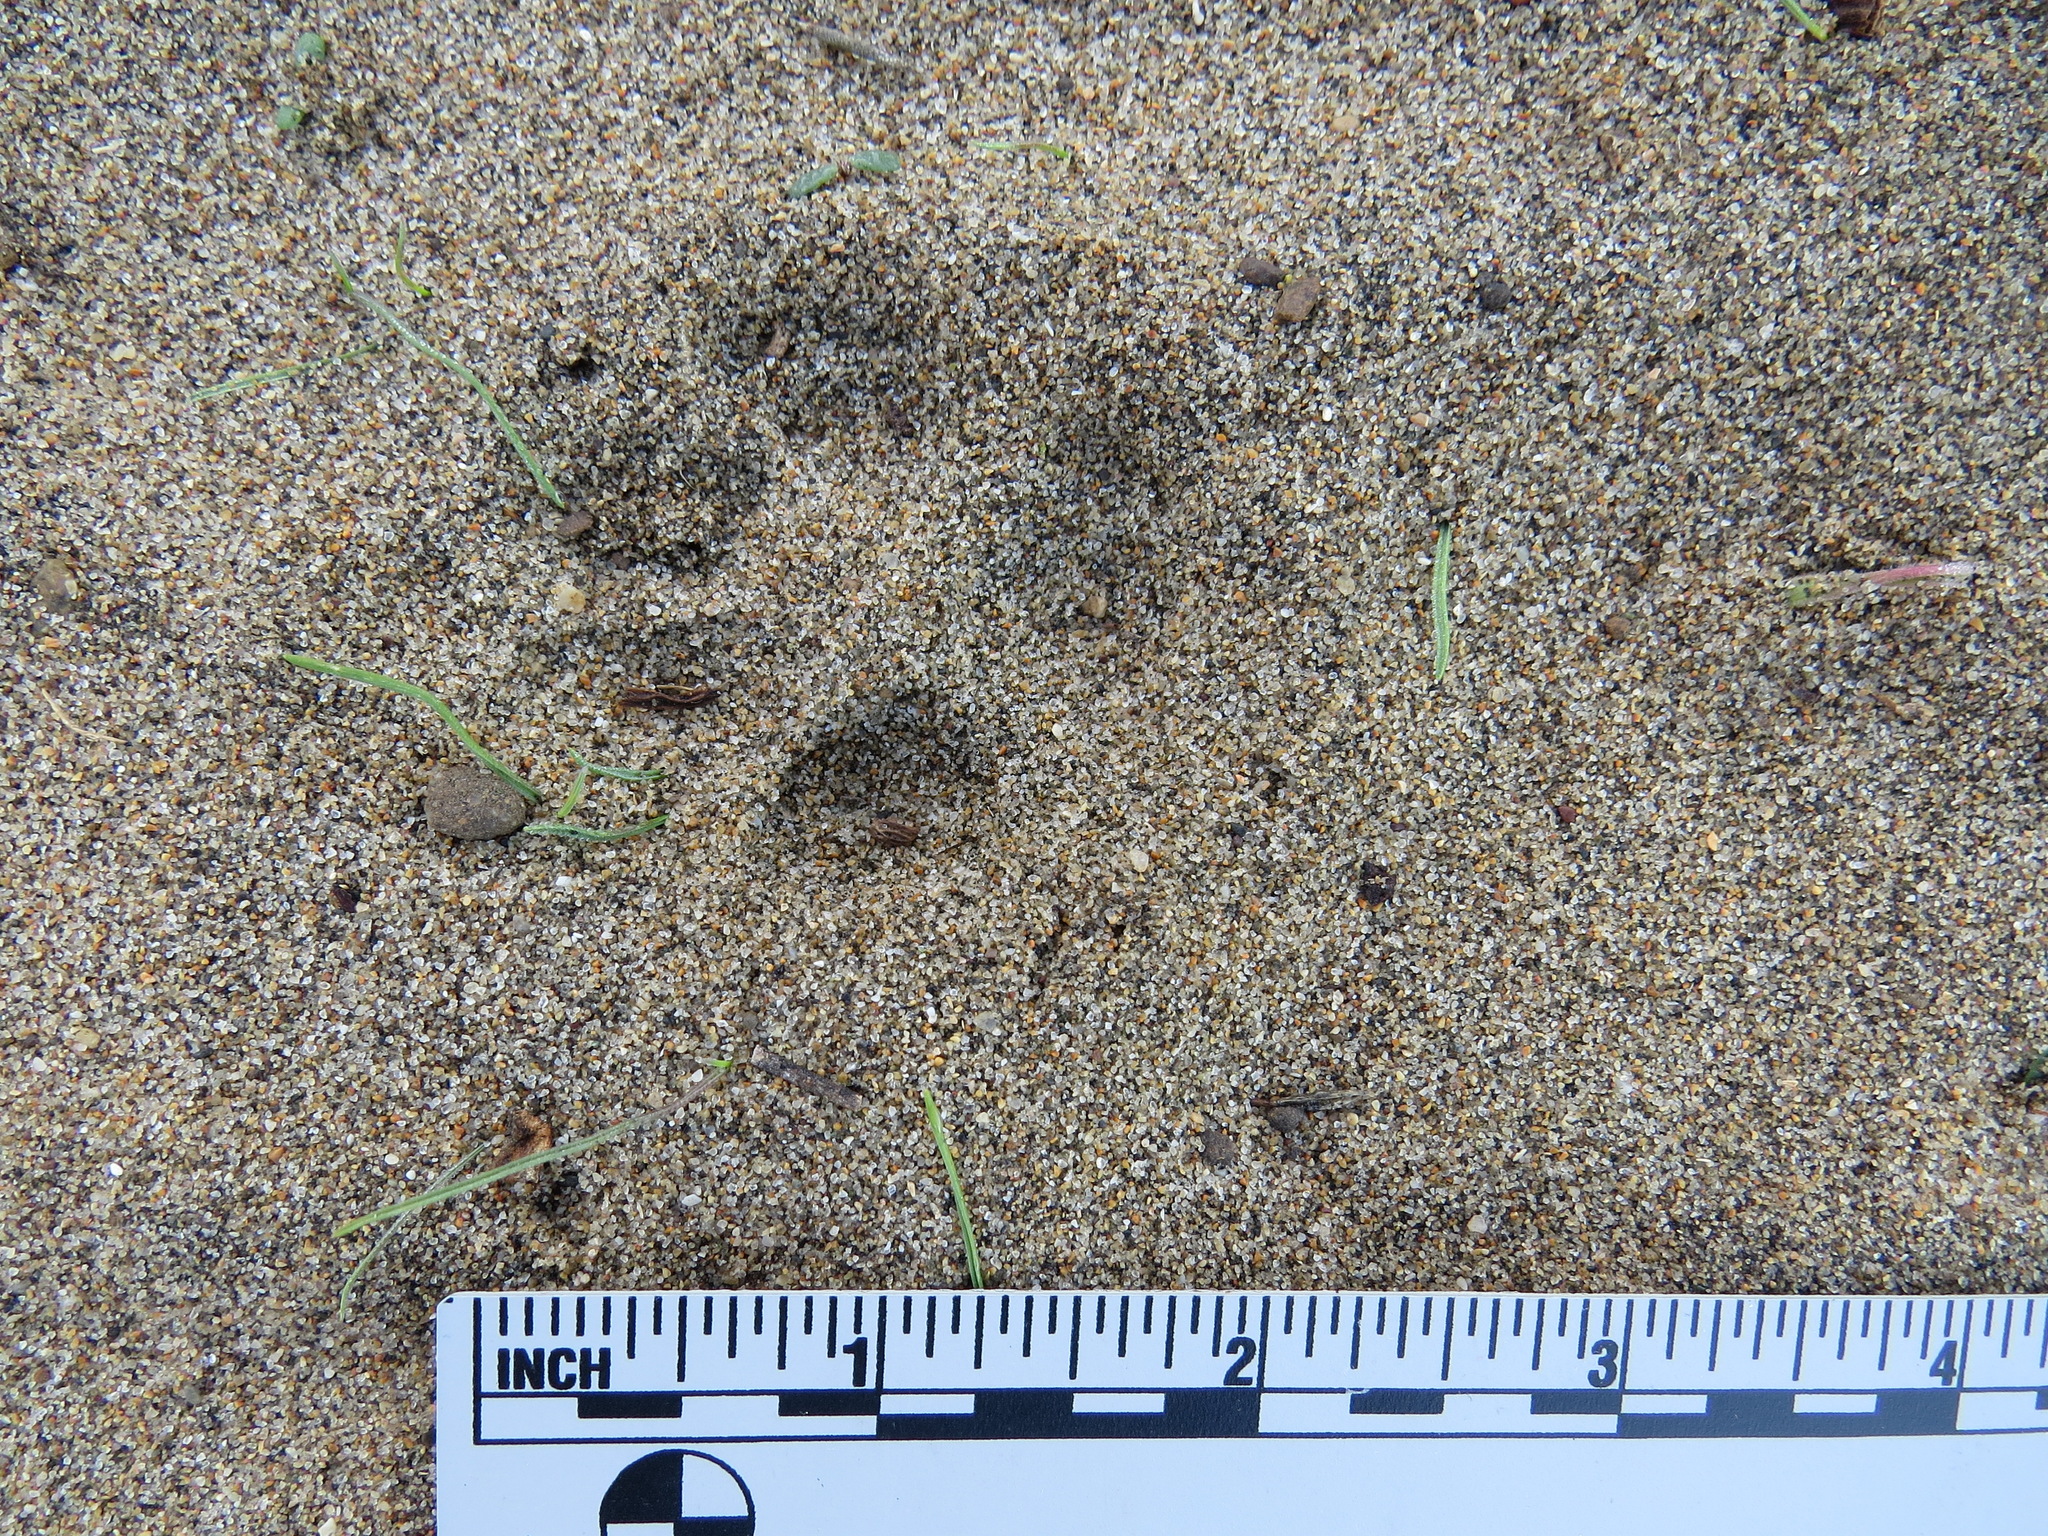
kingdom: Animalia
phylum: Chordata
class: Mammalia
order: Carnivora
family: Canidae
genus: Urocyon
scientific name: Urocyon cinereoargenteus
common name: Gray fox
